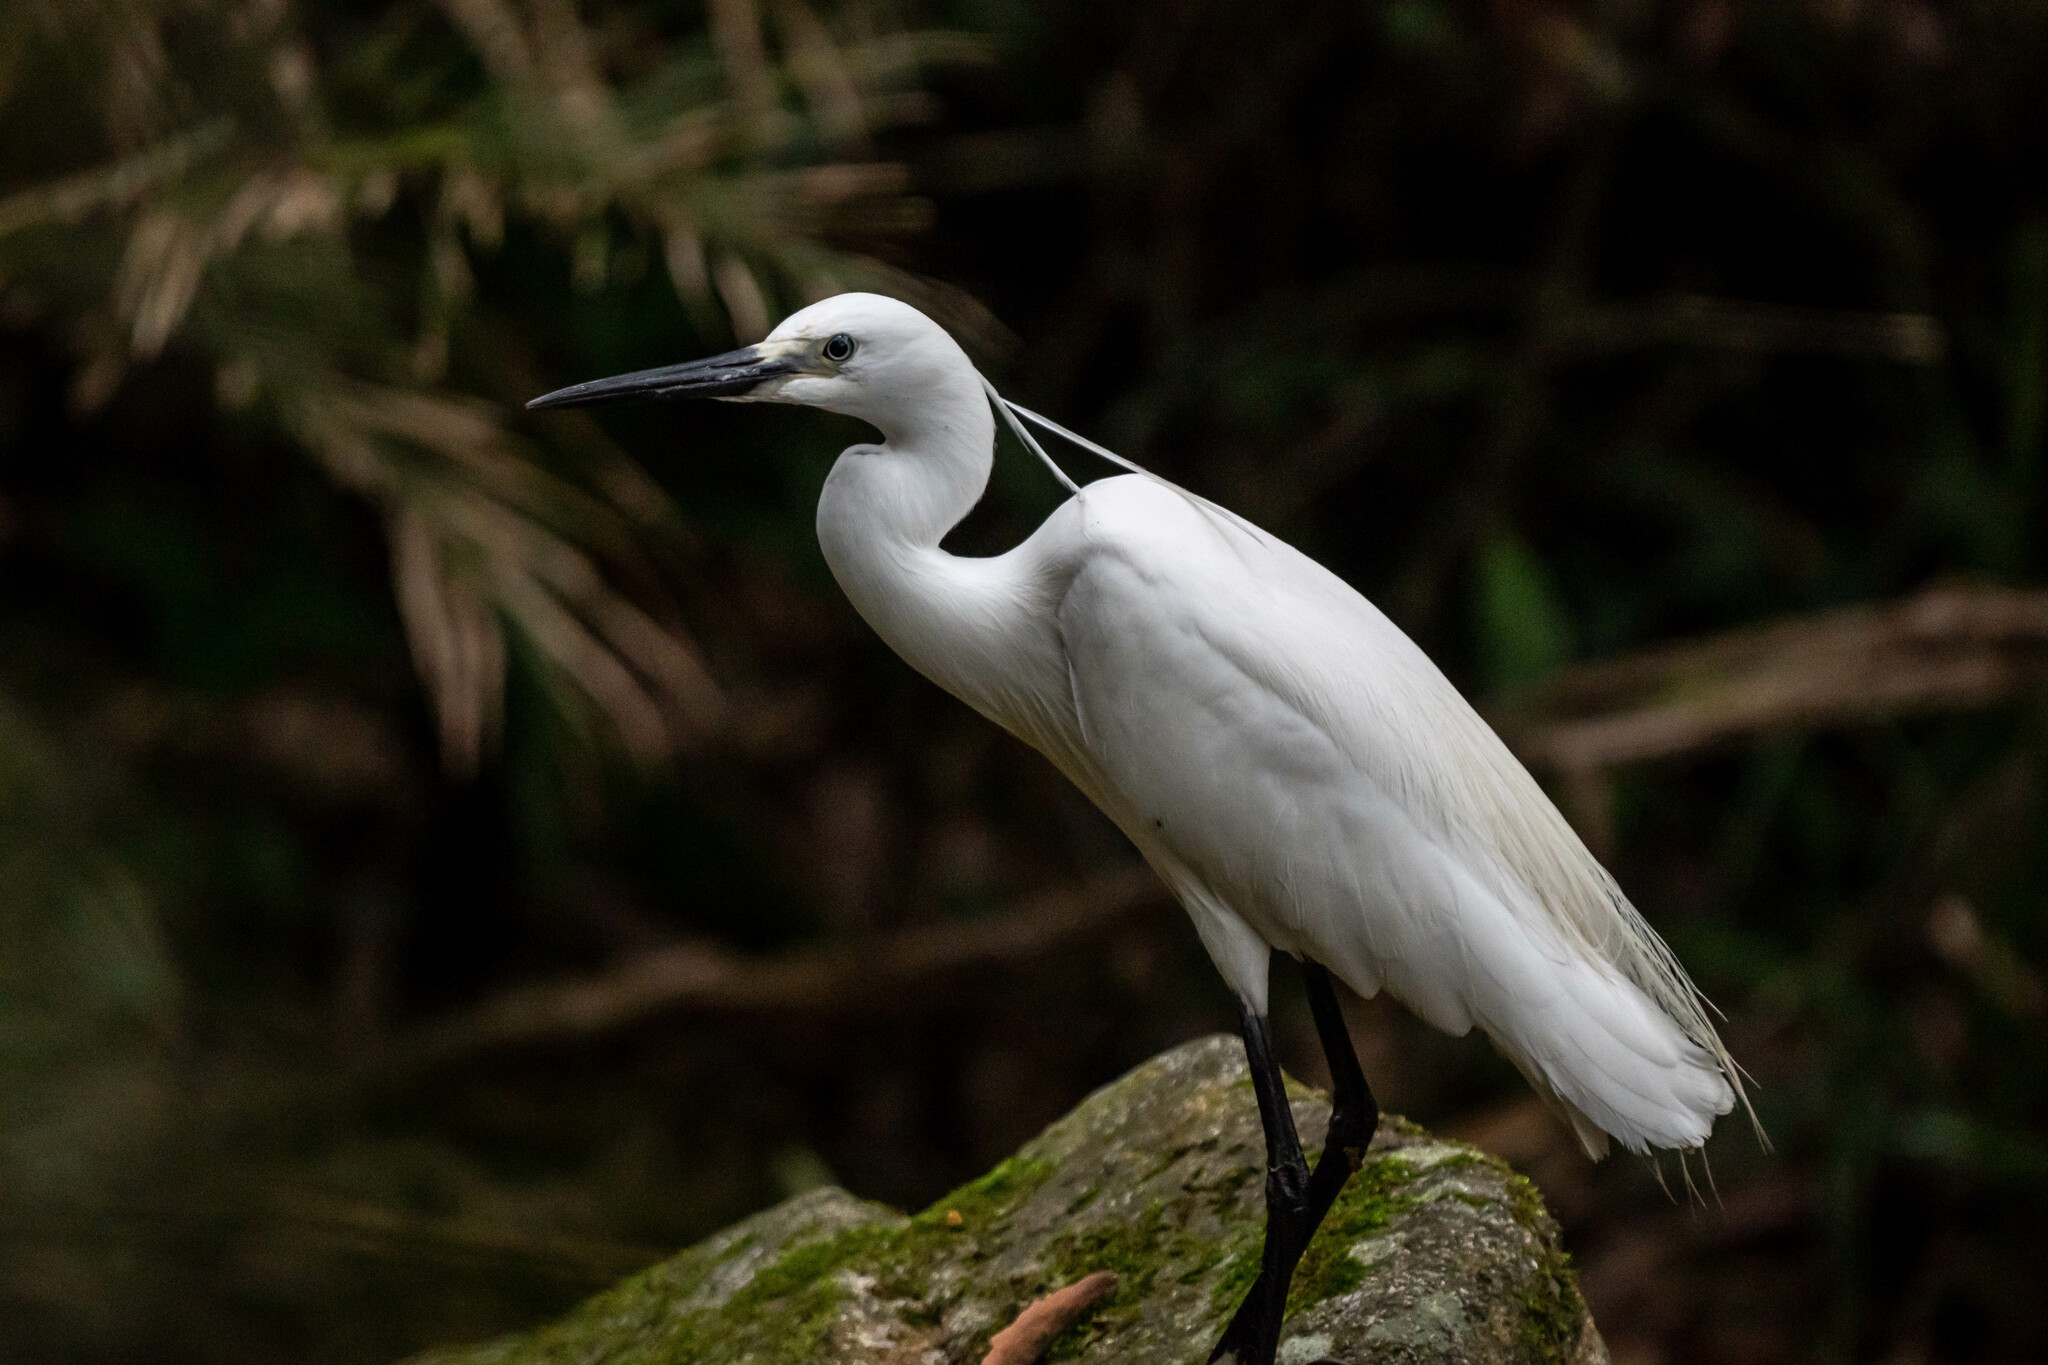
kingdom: Animalia
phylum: Chordata
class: Aves
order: Pelecaniformes
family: Ardeidae
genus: Egretta
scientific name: Egretta garzetta
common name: Little egret
